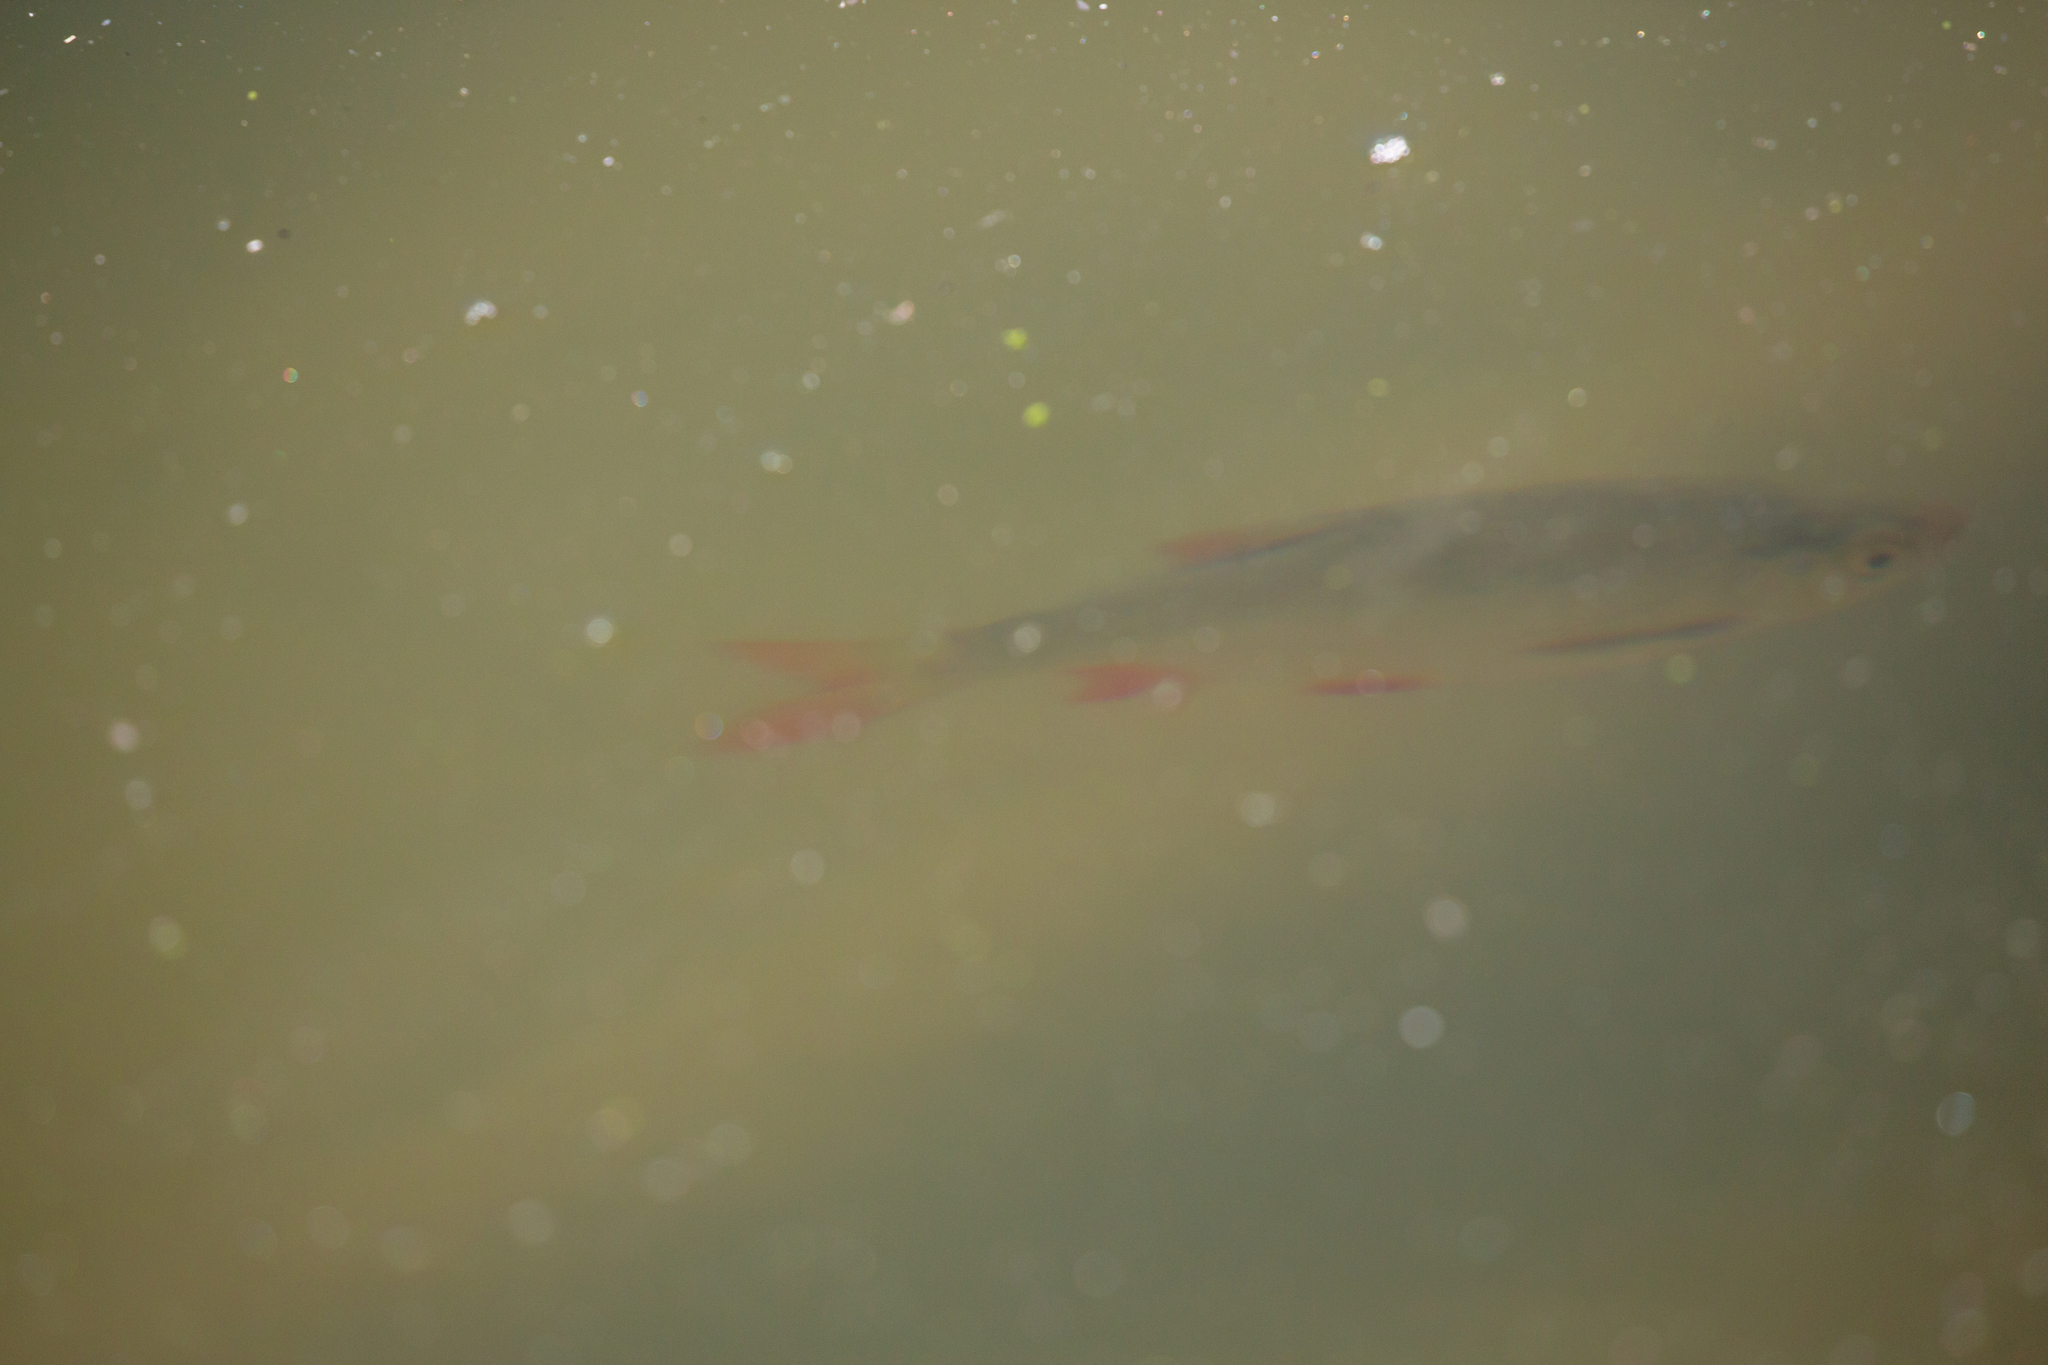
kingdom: Animalia
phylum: Chordata
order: Cypriniformes
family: Cyprinidae
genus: Scardinius
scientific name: Scardinius erythrophthalmus
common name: Rudd
